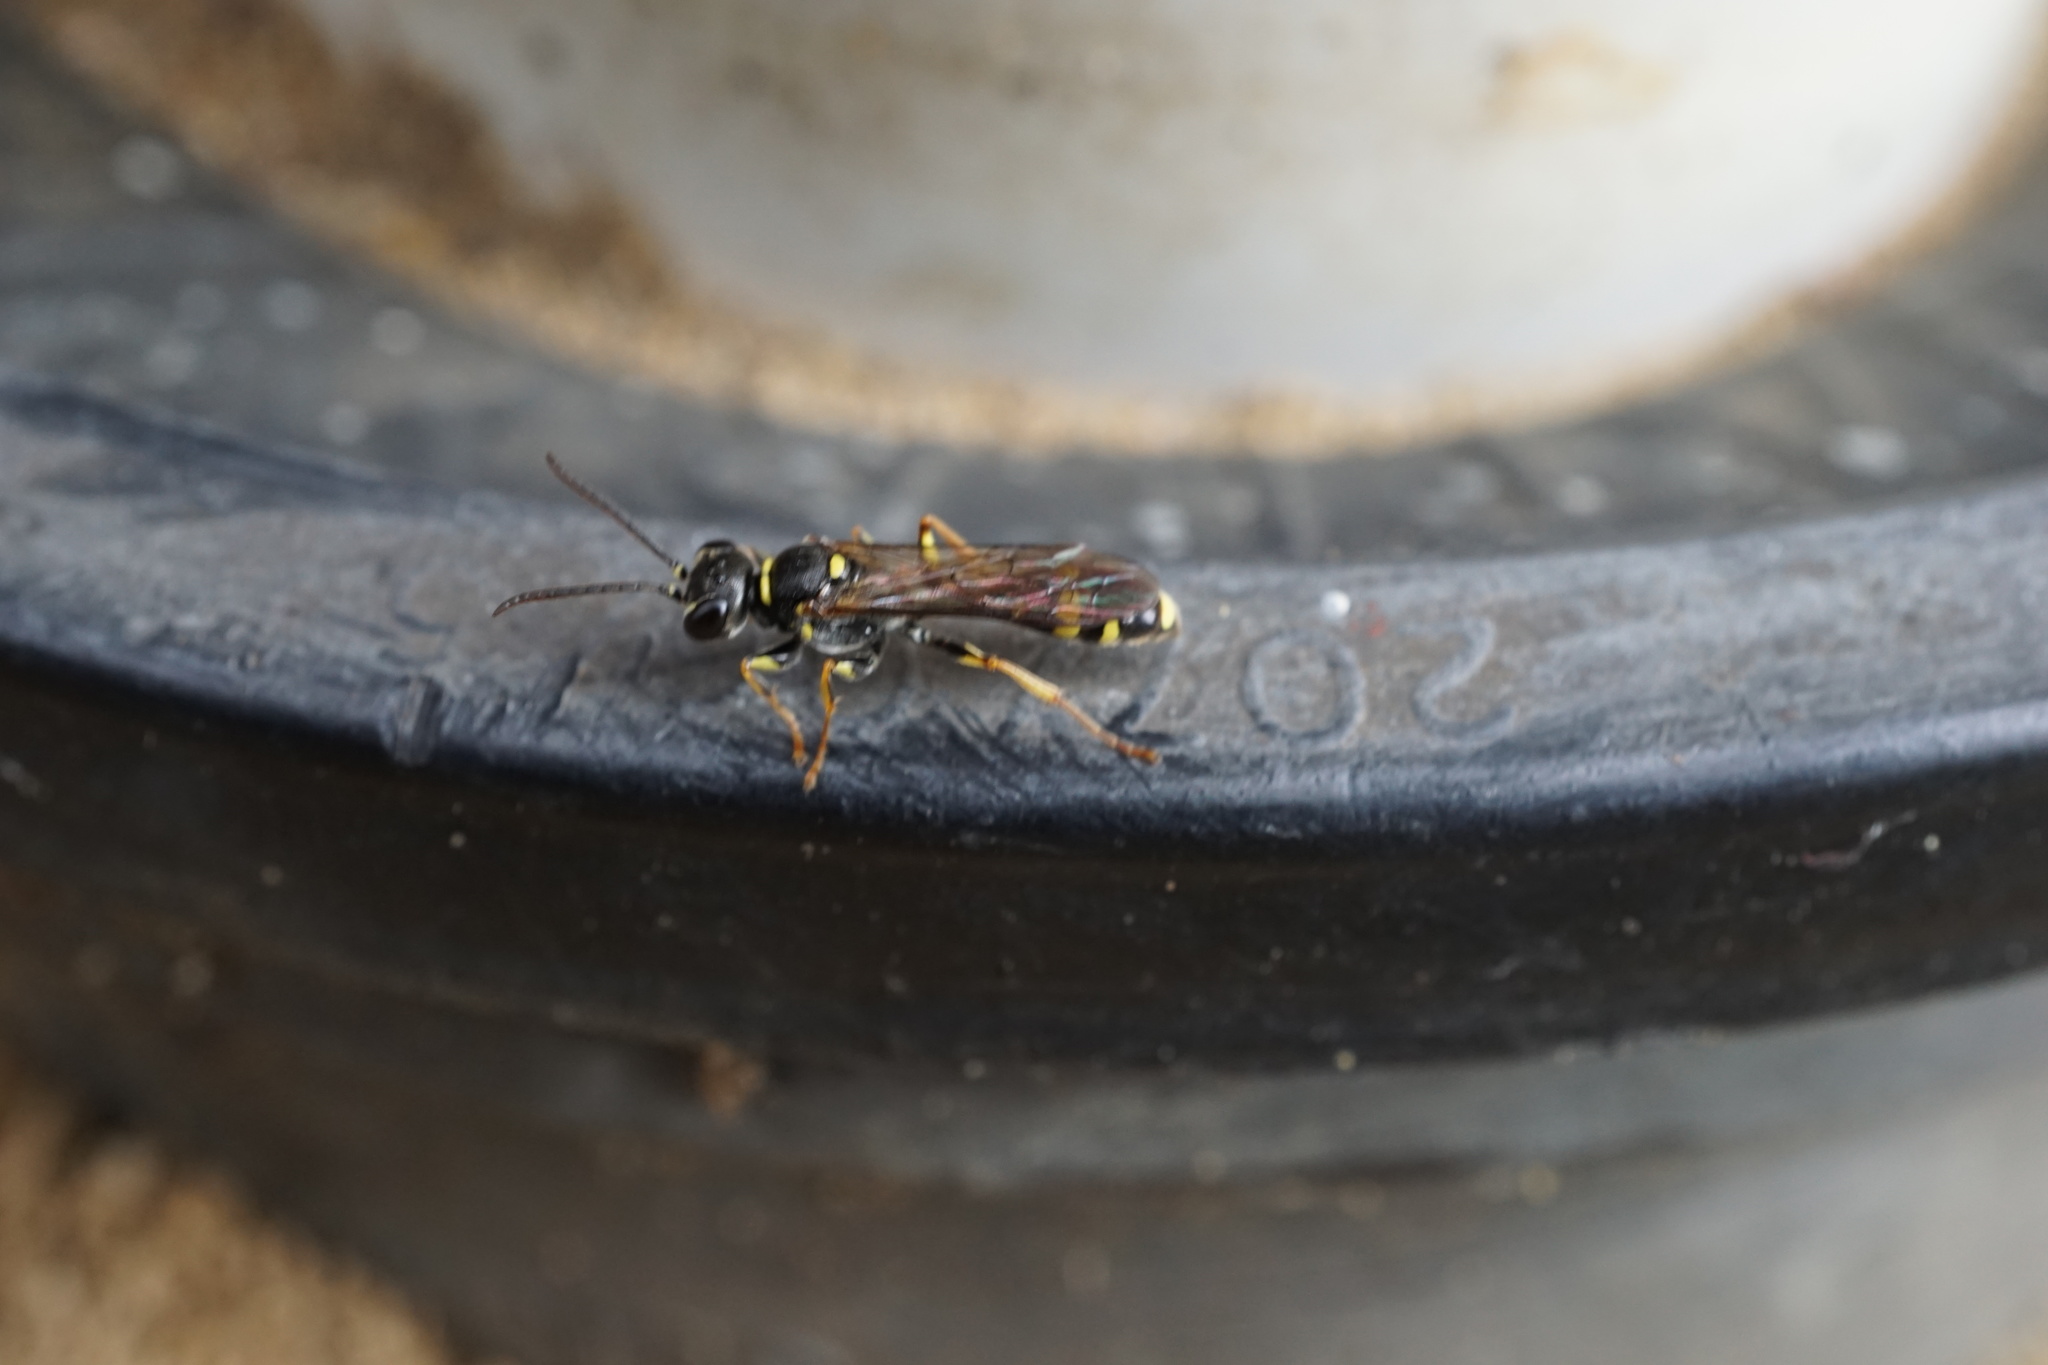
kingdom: Animalia
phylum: Arthropoda
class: Insecta
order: Hymenoptera
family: Crabronidae
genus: Mellinus
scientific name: Mellinus arvensis
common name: Field digger wasp
